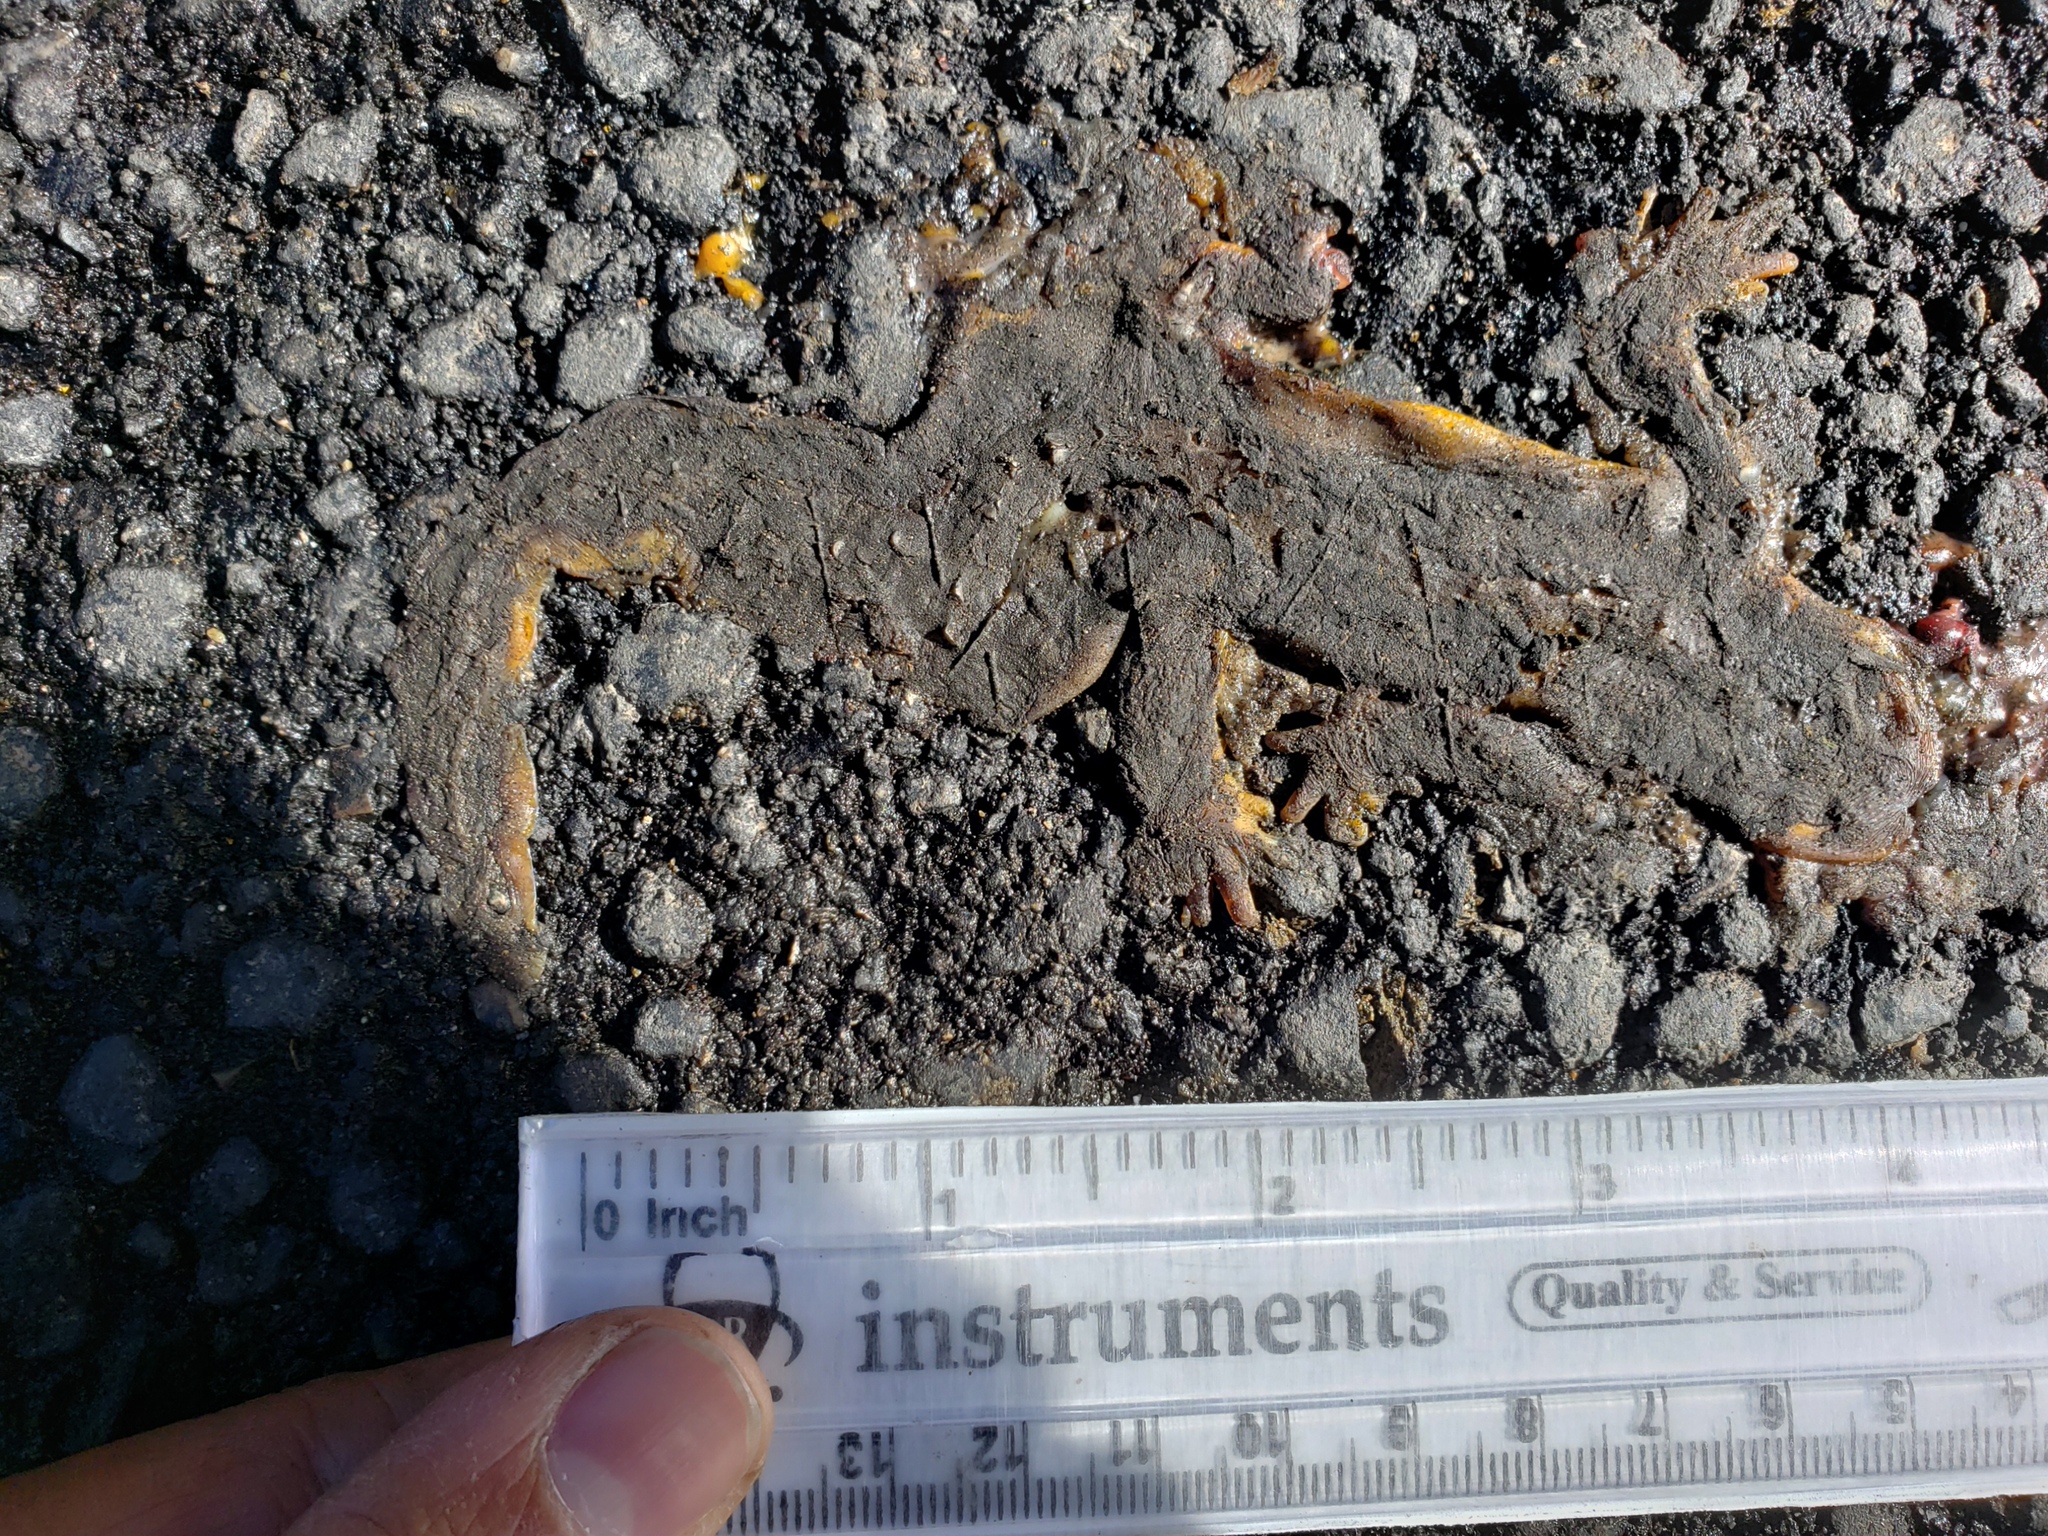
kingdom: Animalia
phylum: Chordata
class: Amphibia
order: Caudata
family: Salamandridae
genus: Taricha
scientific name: Taricha
